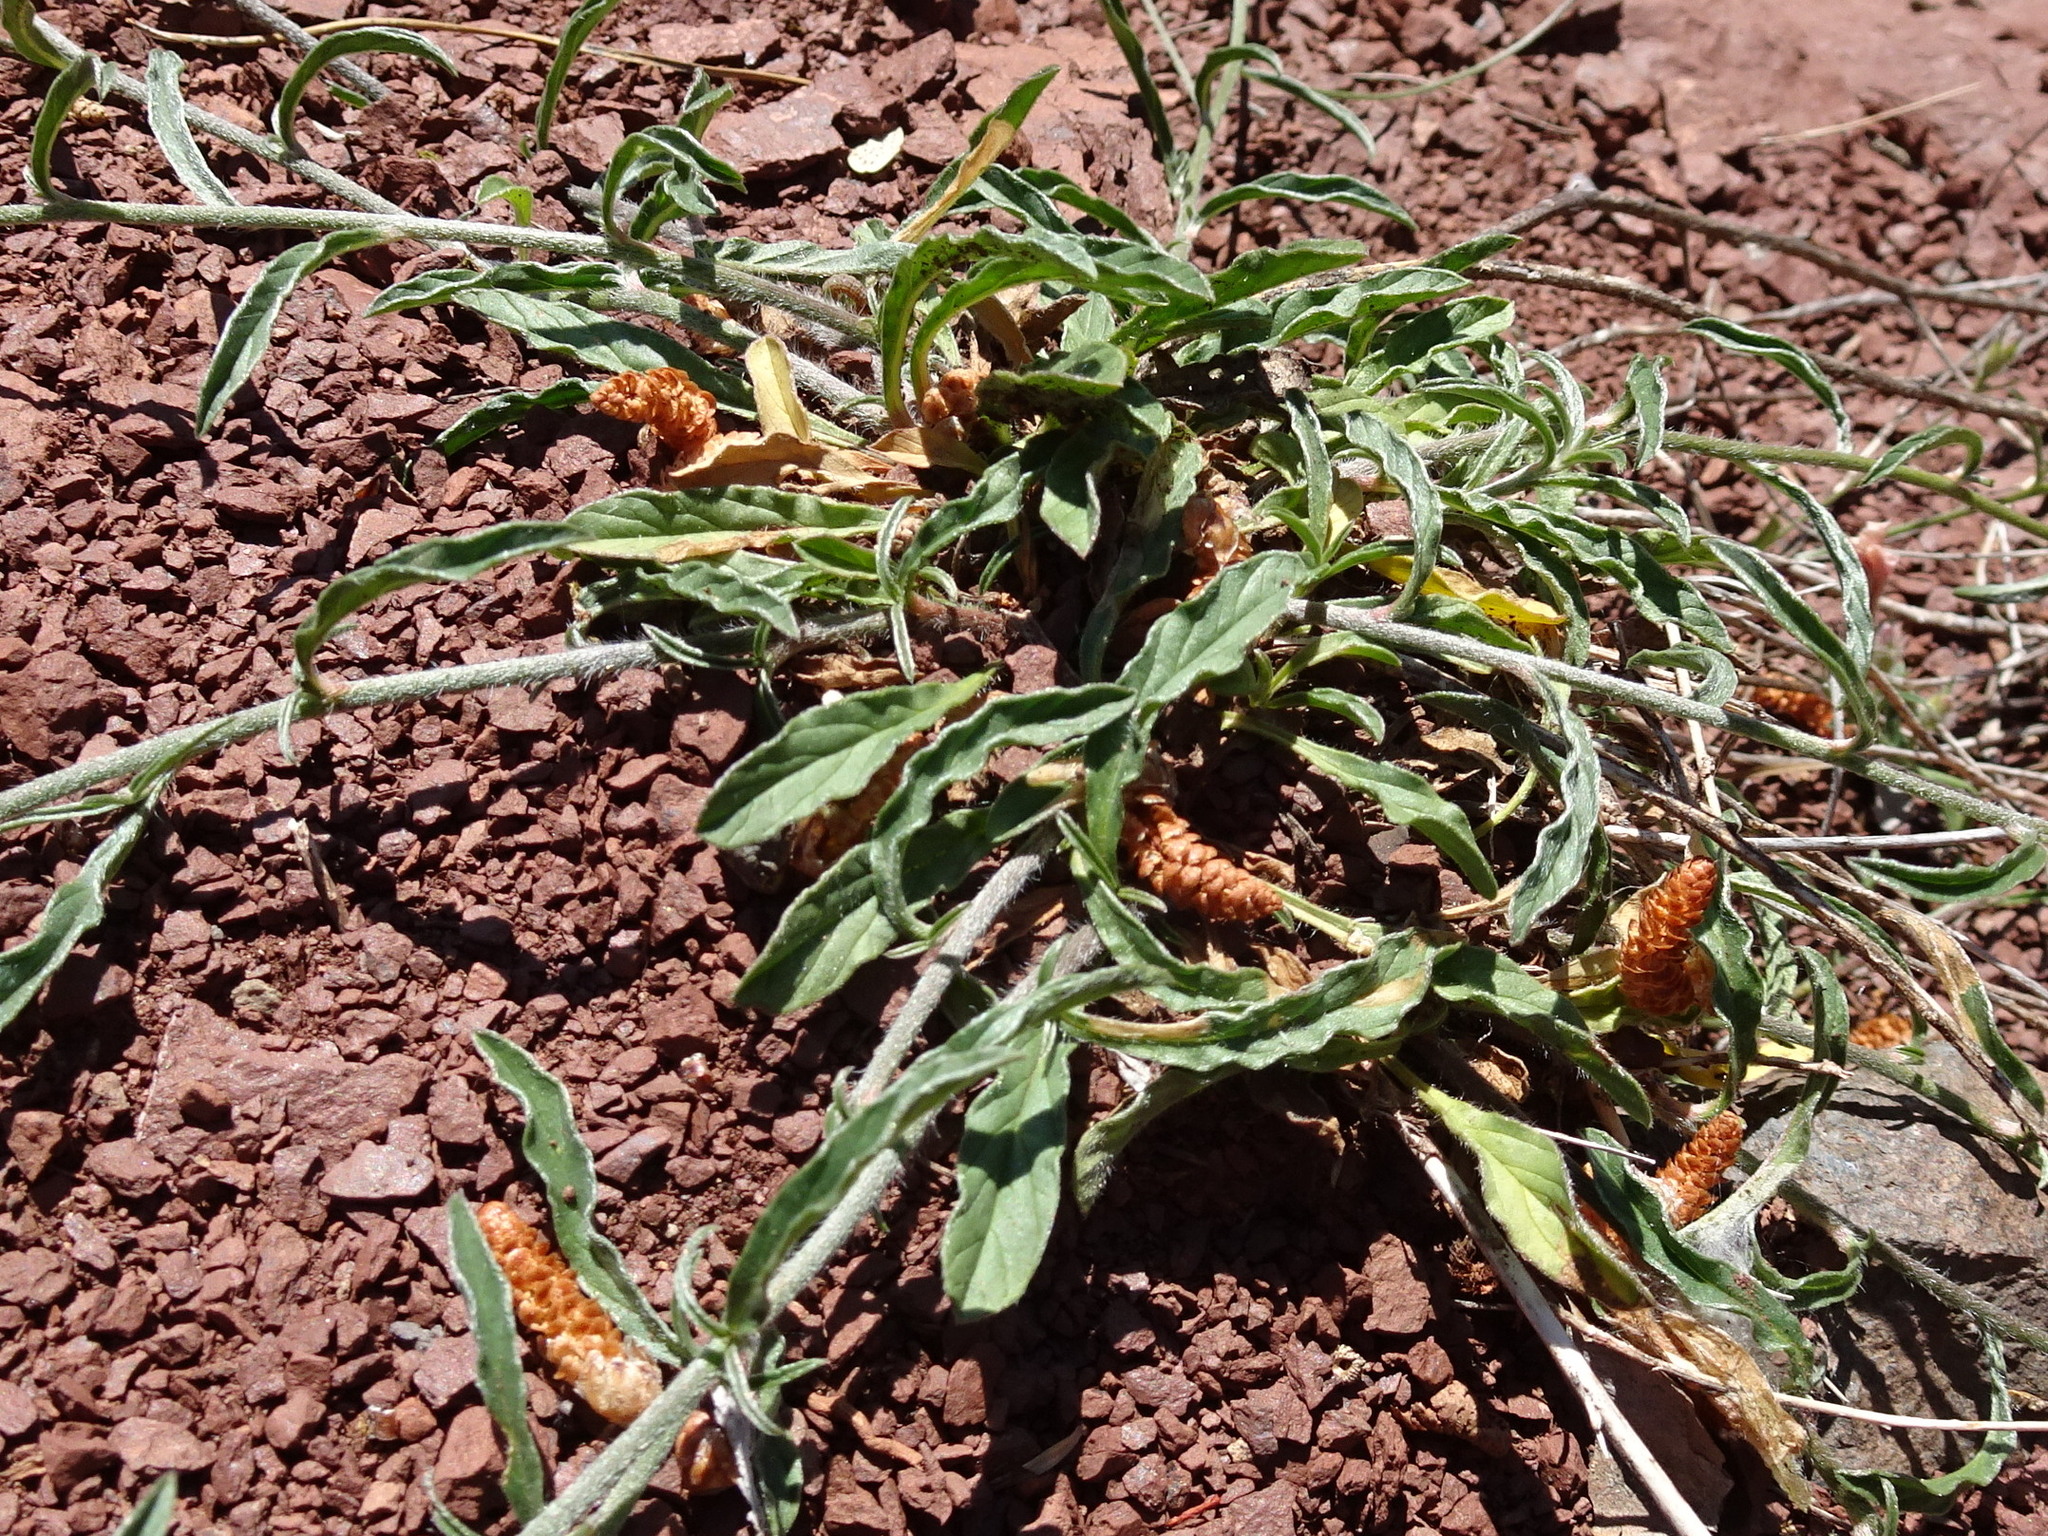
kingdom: Plantae
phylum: Tracheophyta
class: Magnoliopsida
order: Solanales
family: Convolvulaceae
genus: Convolvulus
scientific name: Convolvulus cantabrica
